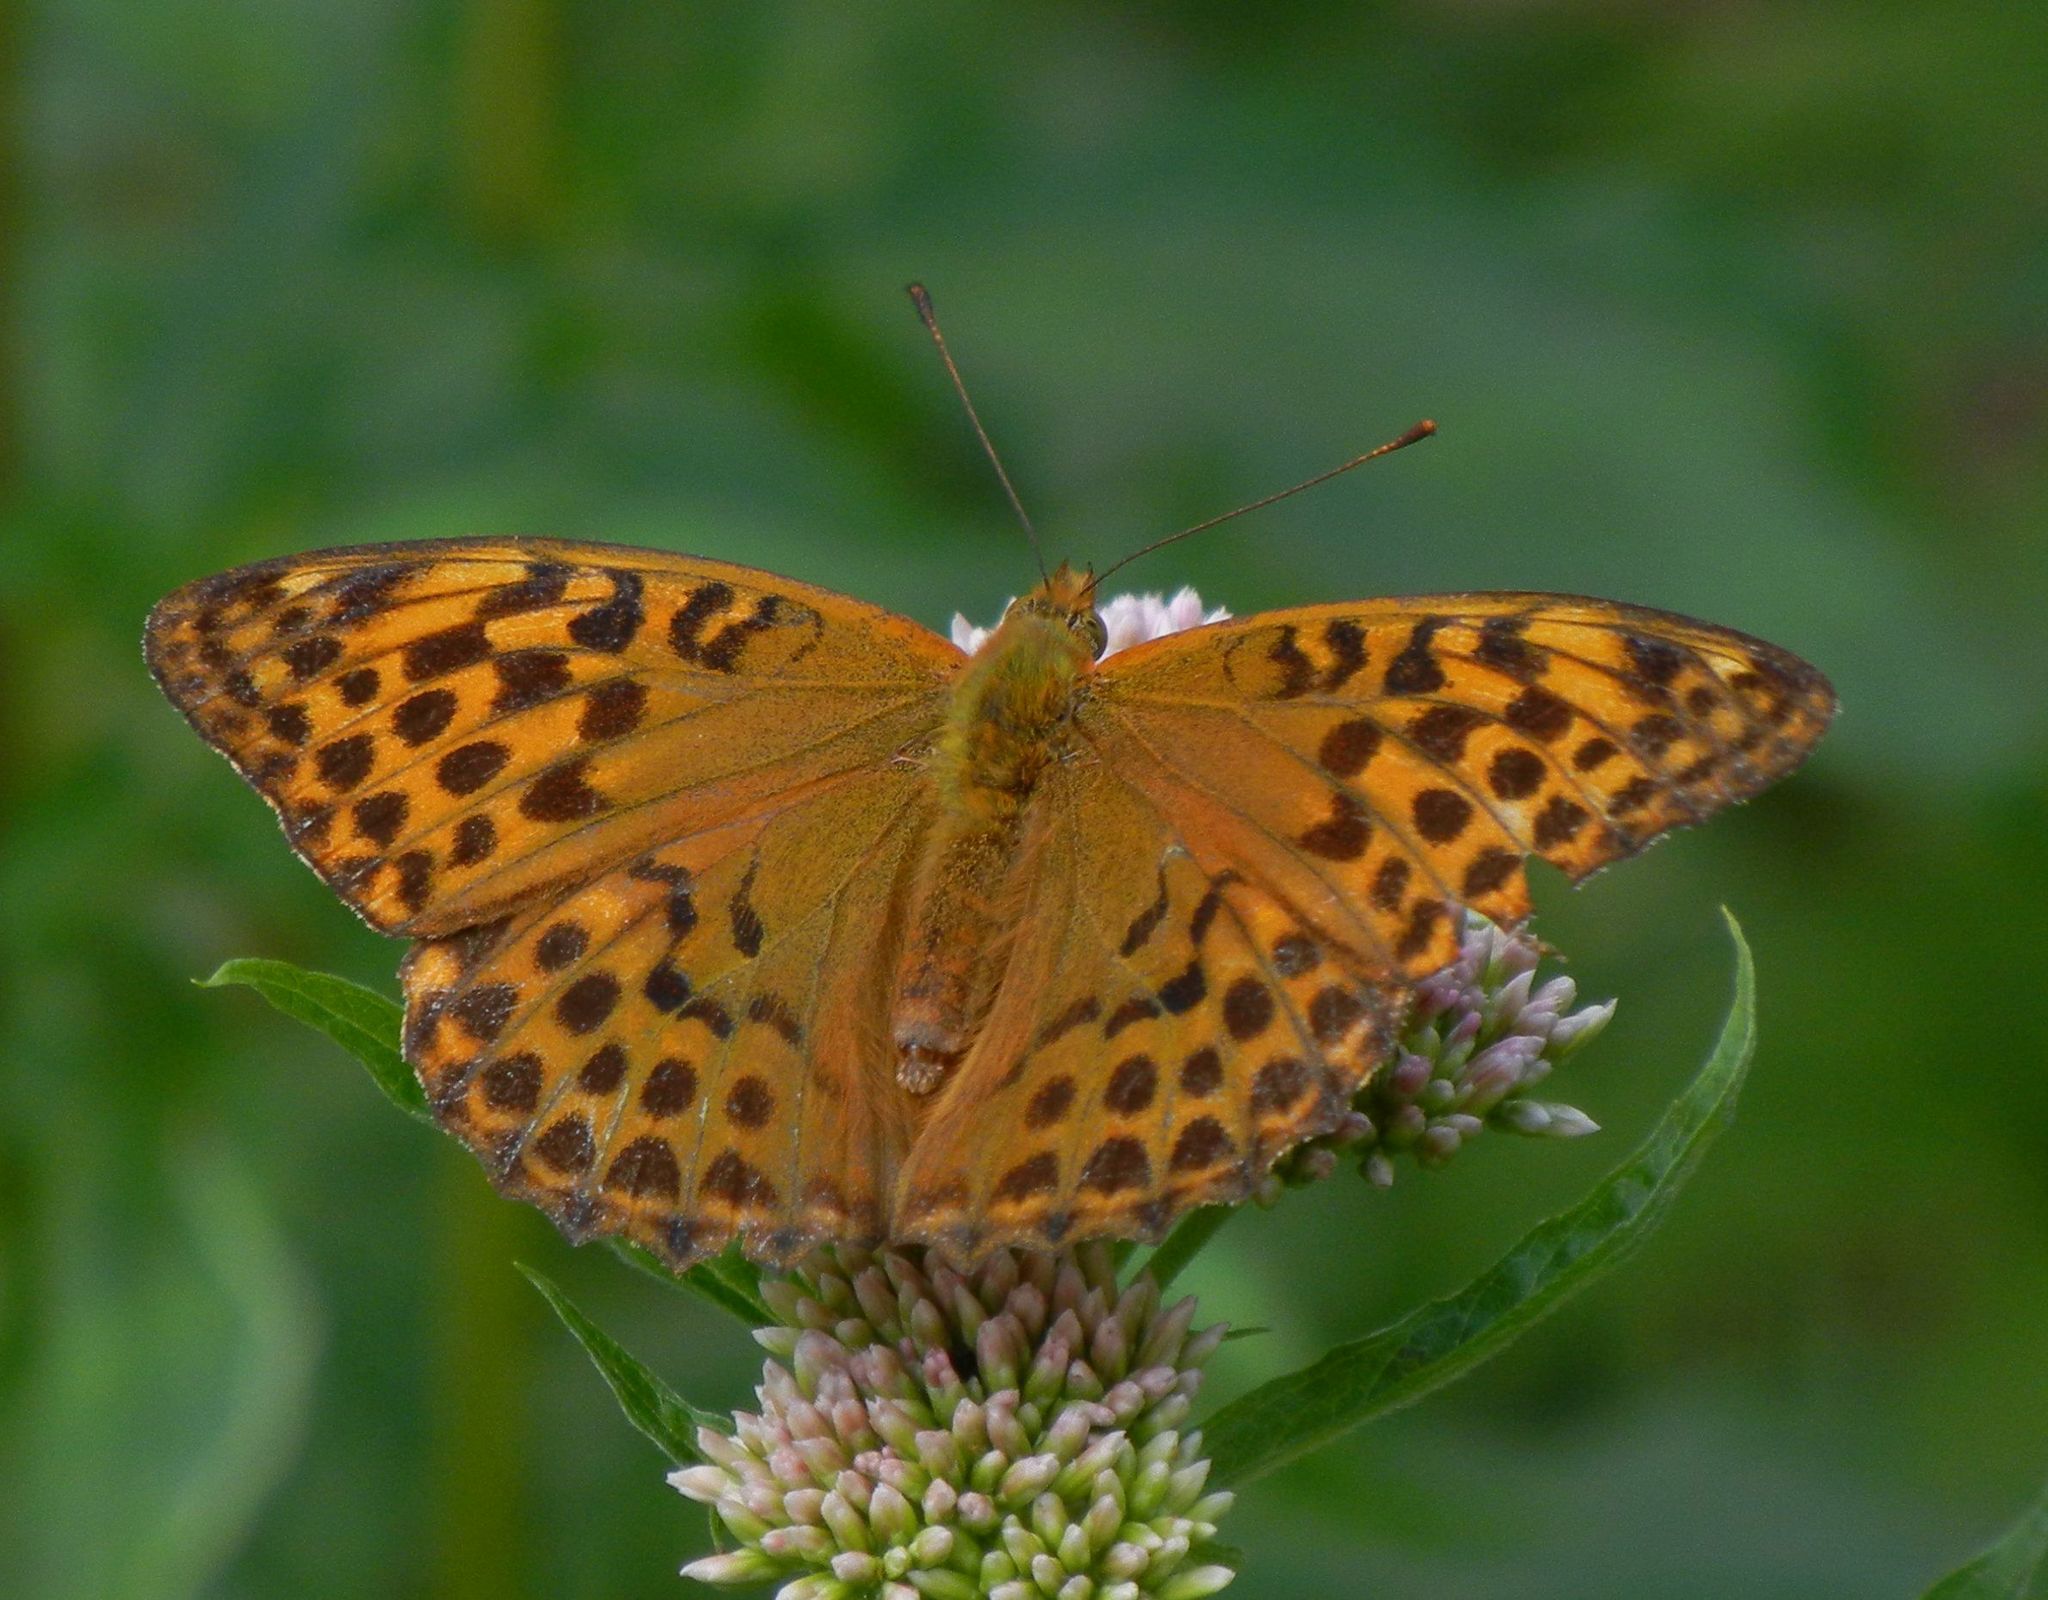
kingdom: Animalia
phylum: Arthropoda
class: Insecta
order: Lepidoptera
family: Nymphalidae
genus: Argynnis
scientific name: Argynnis paphia
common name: Silver-washed fritillary
